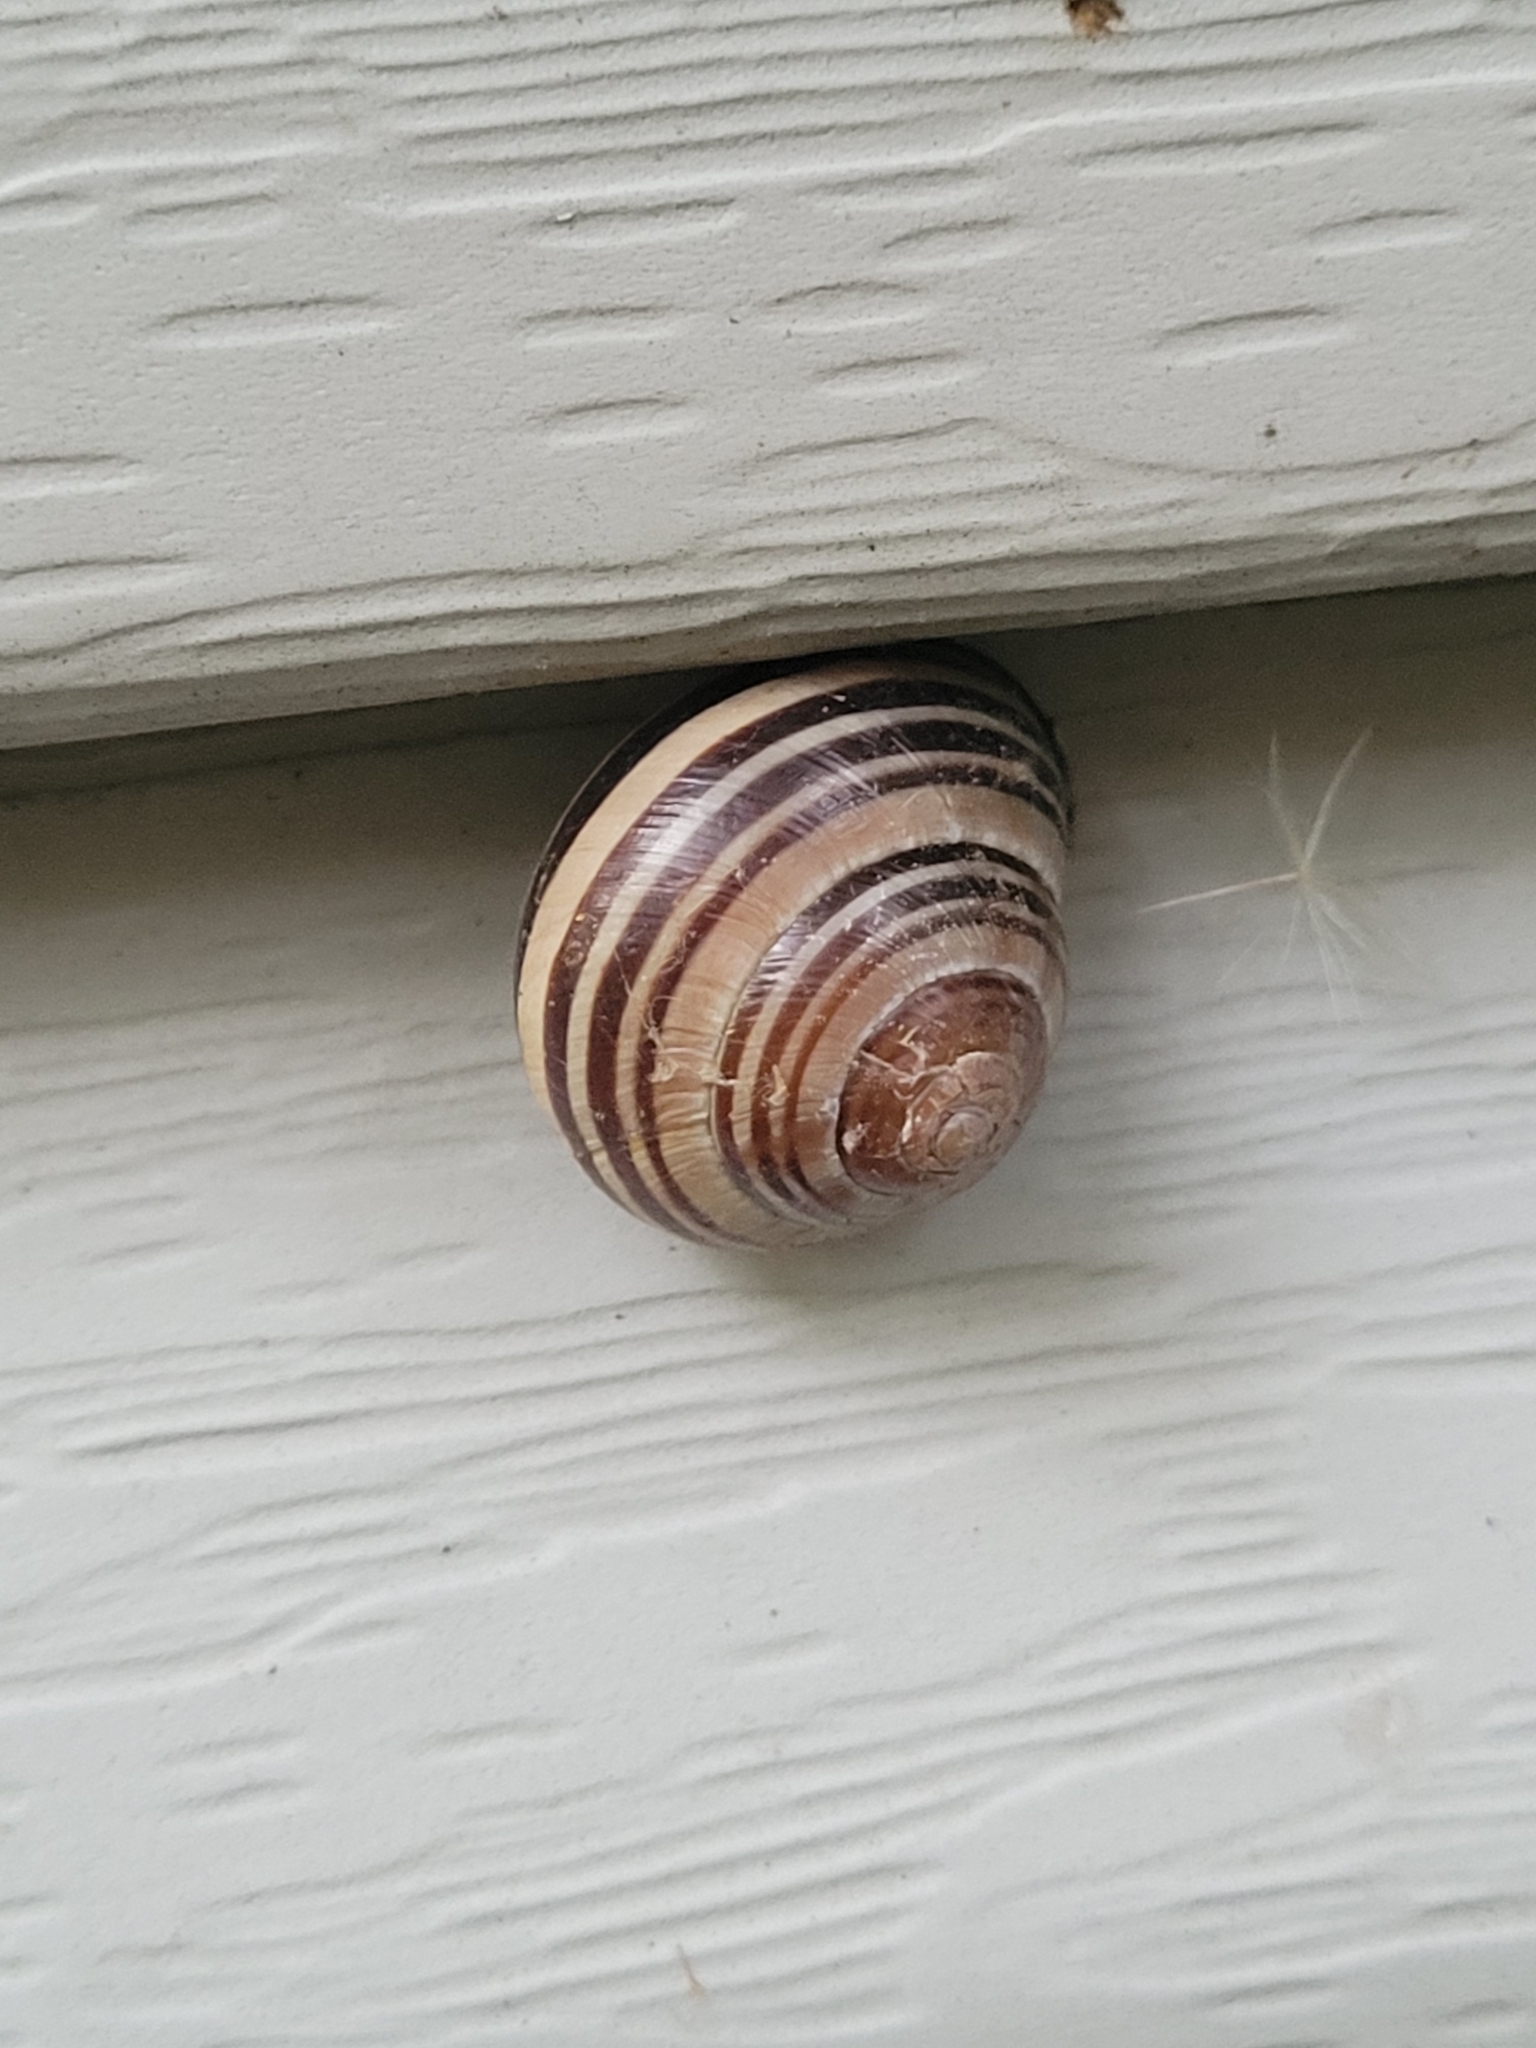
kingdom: Animalia
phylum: Mollusca
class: Gastropoda
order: Stylommatophora
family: Helicidae
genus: Cepaea
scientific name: Cepaea nemoralis
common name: Grovesnail
